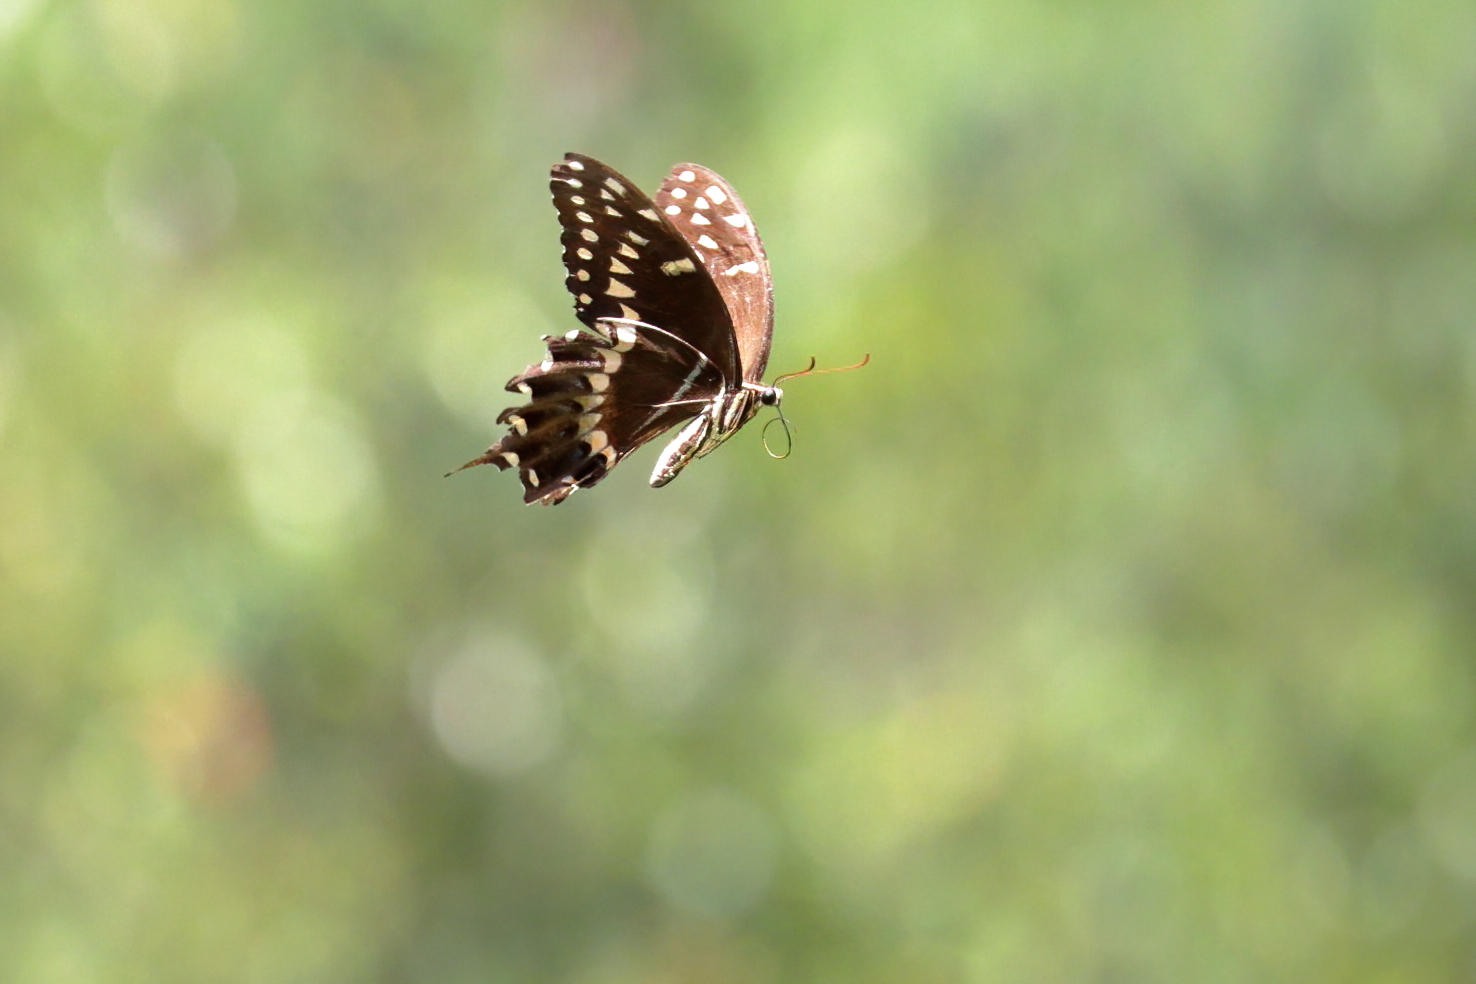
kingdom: Animalia
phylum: Arthropoda
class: Insecta
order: Lepidoptera
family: Papilionidae
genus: Papilio
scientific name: Papilio palamedes
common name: Palamedes swallowtail
